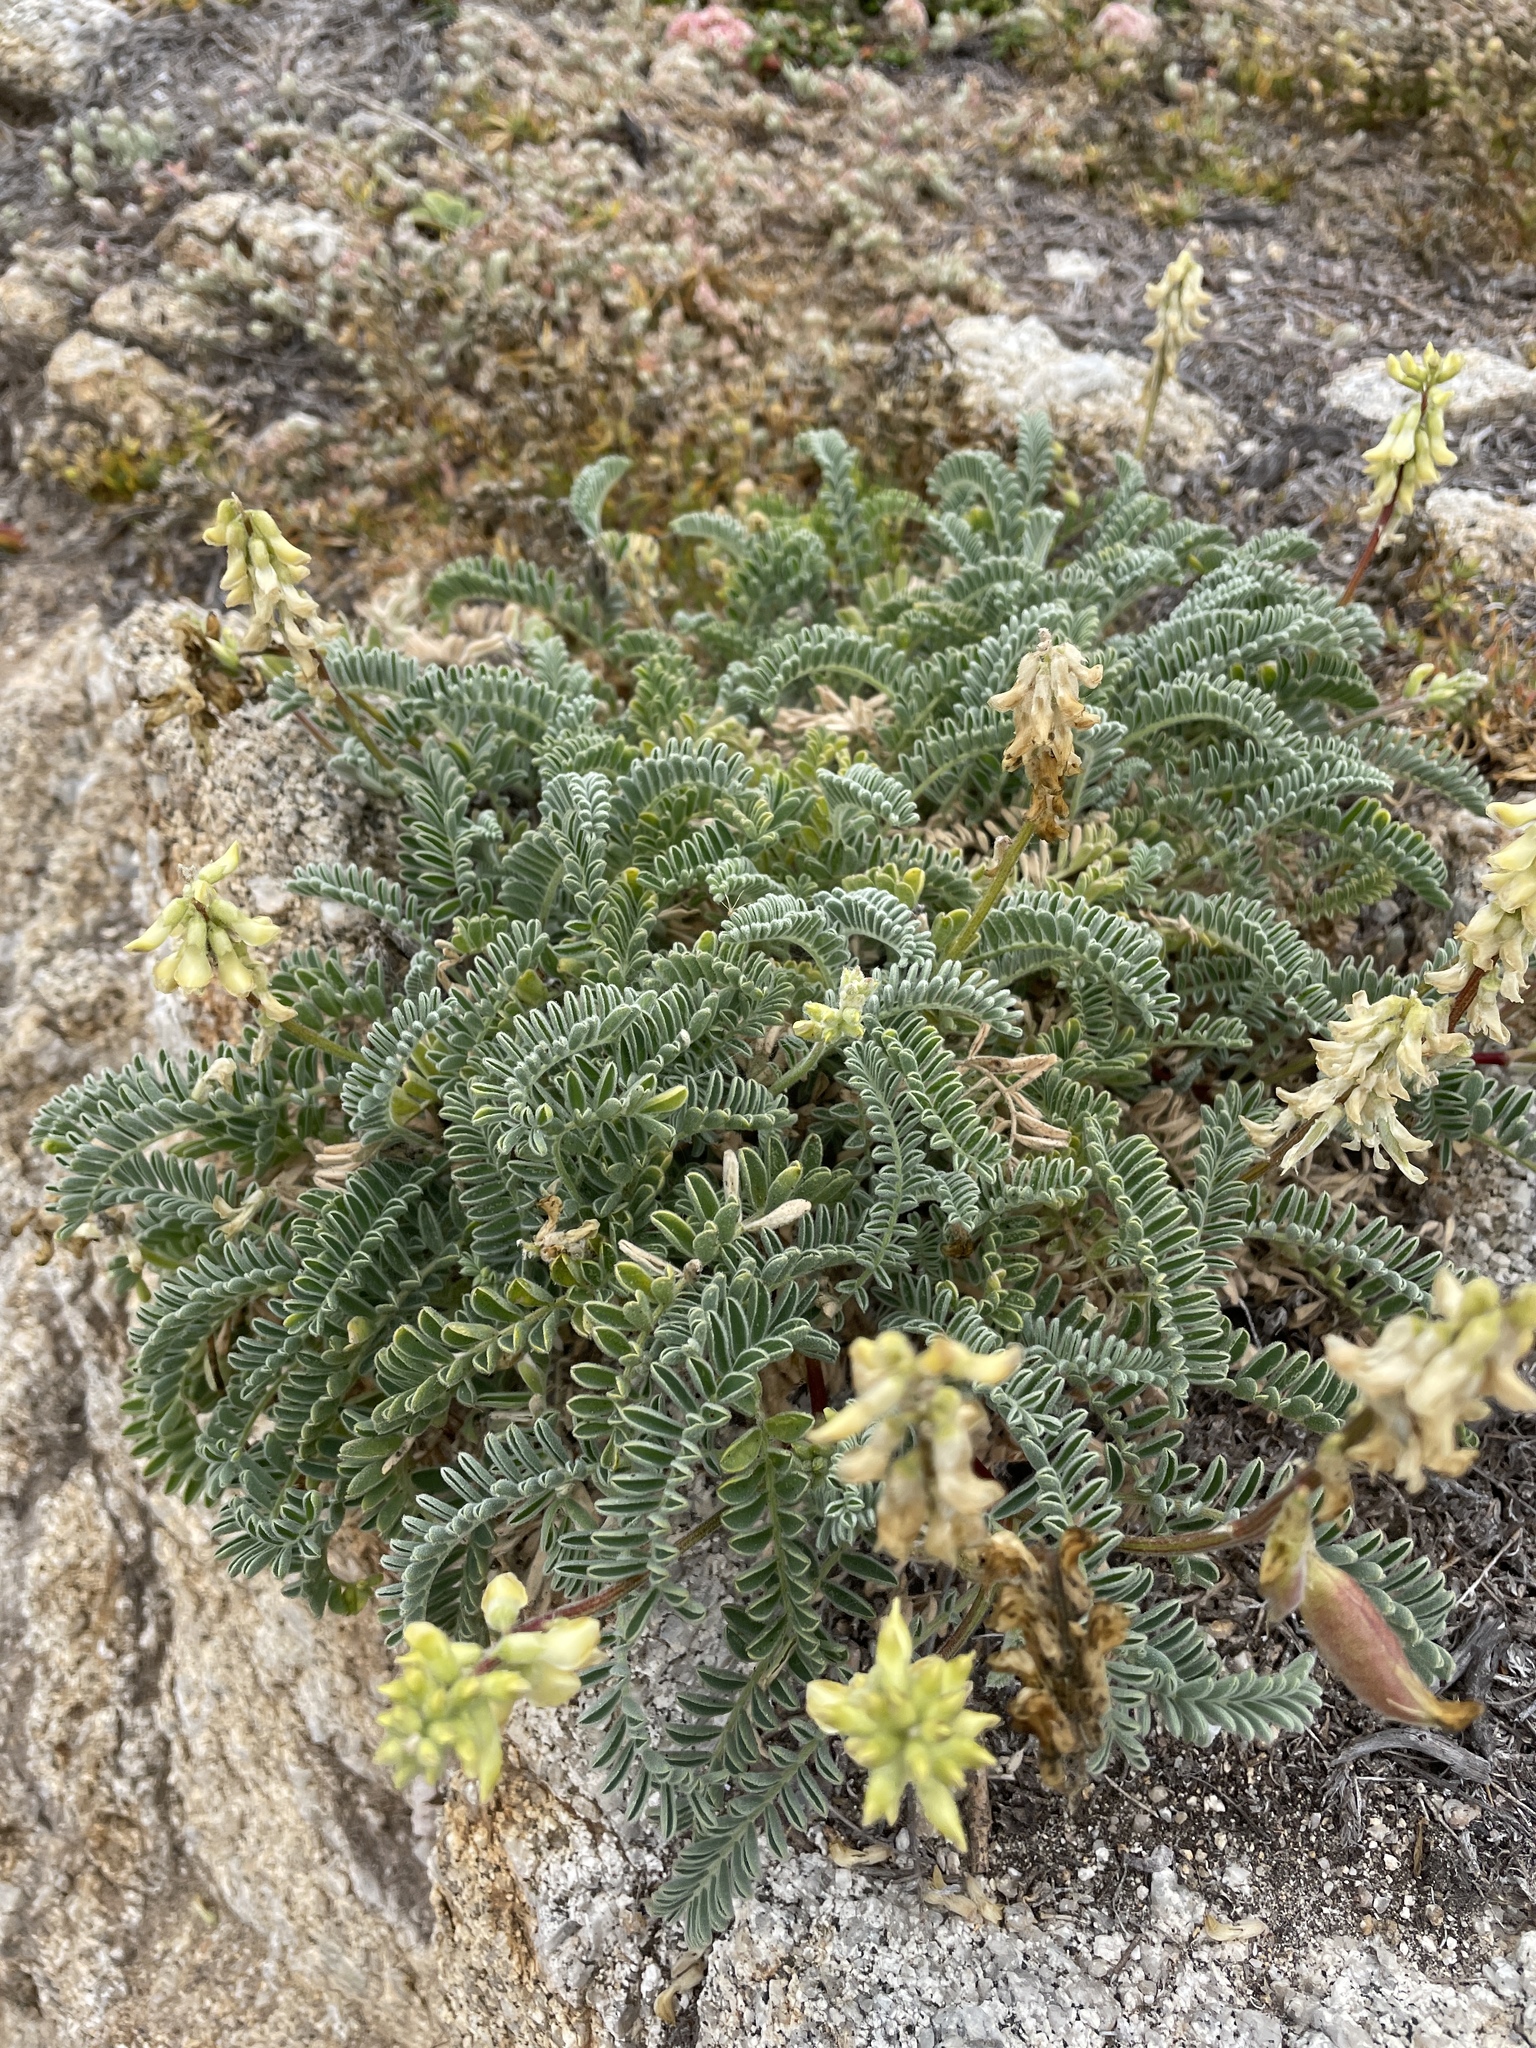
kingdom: Plantae
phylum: Tracheophyta
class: Magnoliopsida
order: Fabales
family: Fabaceae
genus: Astragalus
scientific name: Astragalus nuttallii
